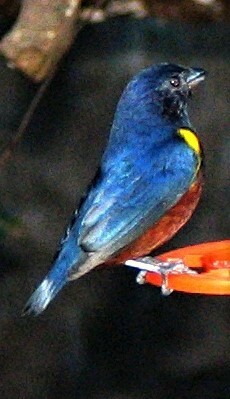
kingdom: Animalia
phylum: Chordata
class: Aves
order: Passeriformes
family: Fringillidae
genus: Euphonia
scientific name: Euphonia pectoralis
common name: Chestnut-bellied euphonia
